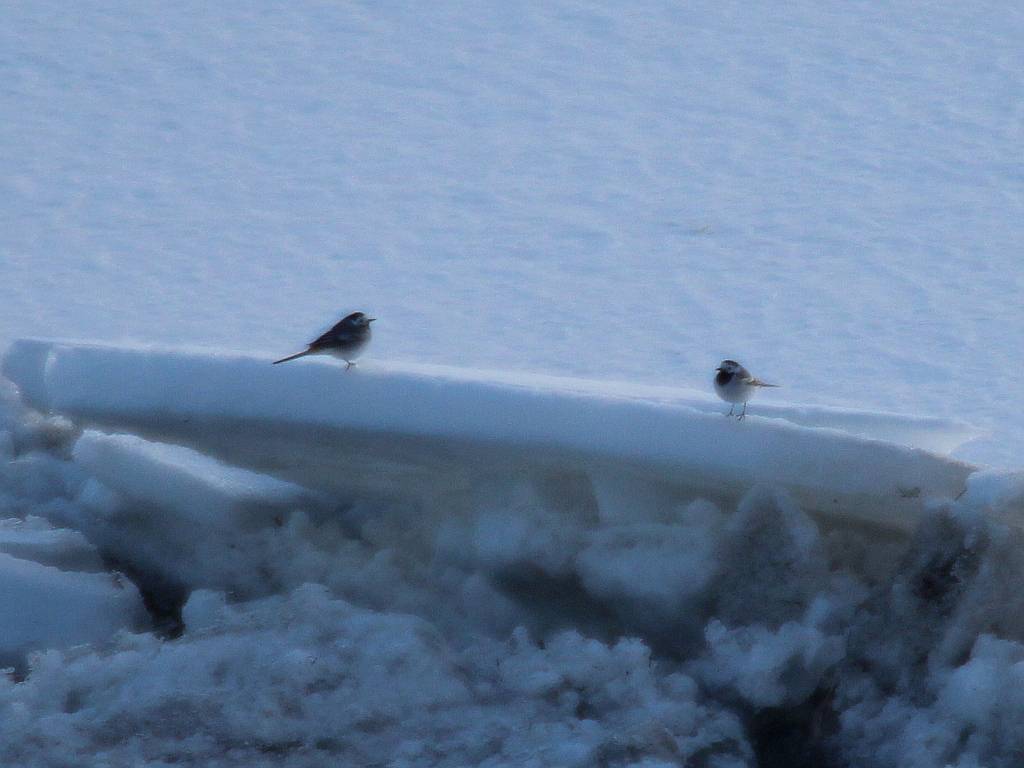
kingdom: Animalia
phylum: Chordata
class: Aves
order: Passeriformes
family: Motacillidae
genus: Motacilla
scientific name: Motacilla alba
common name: White wagtail
